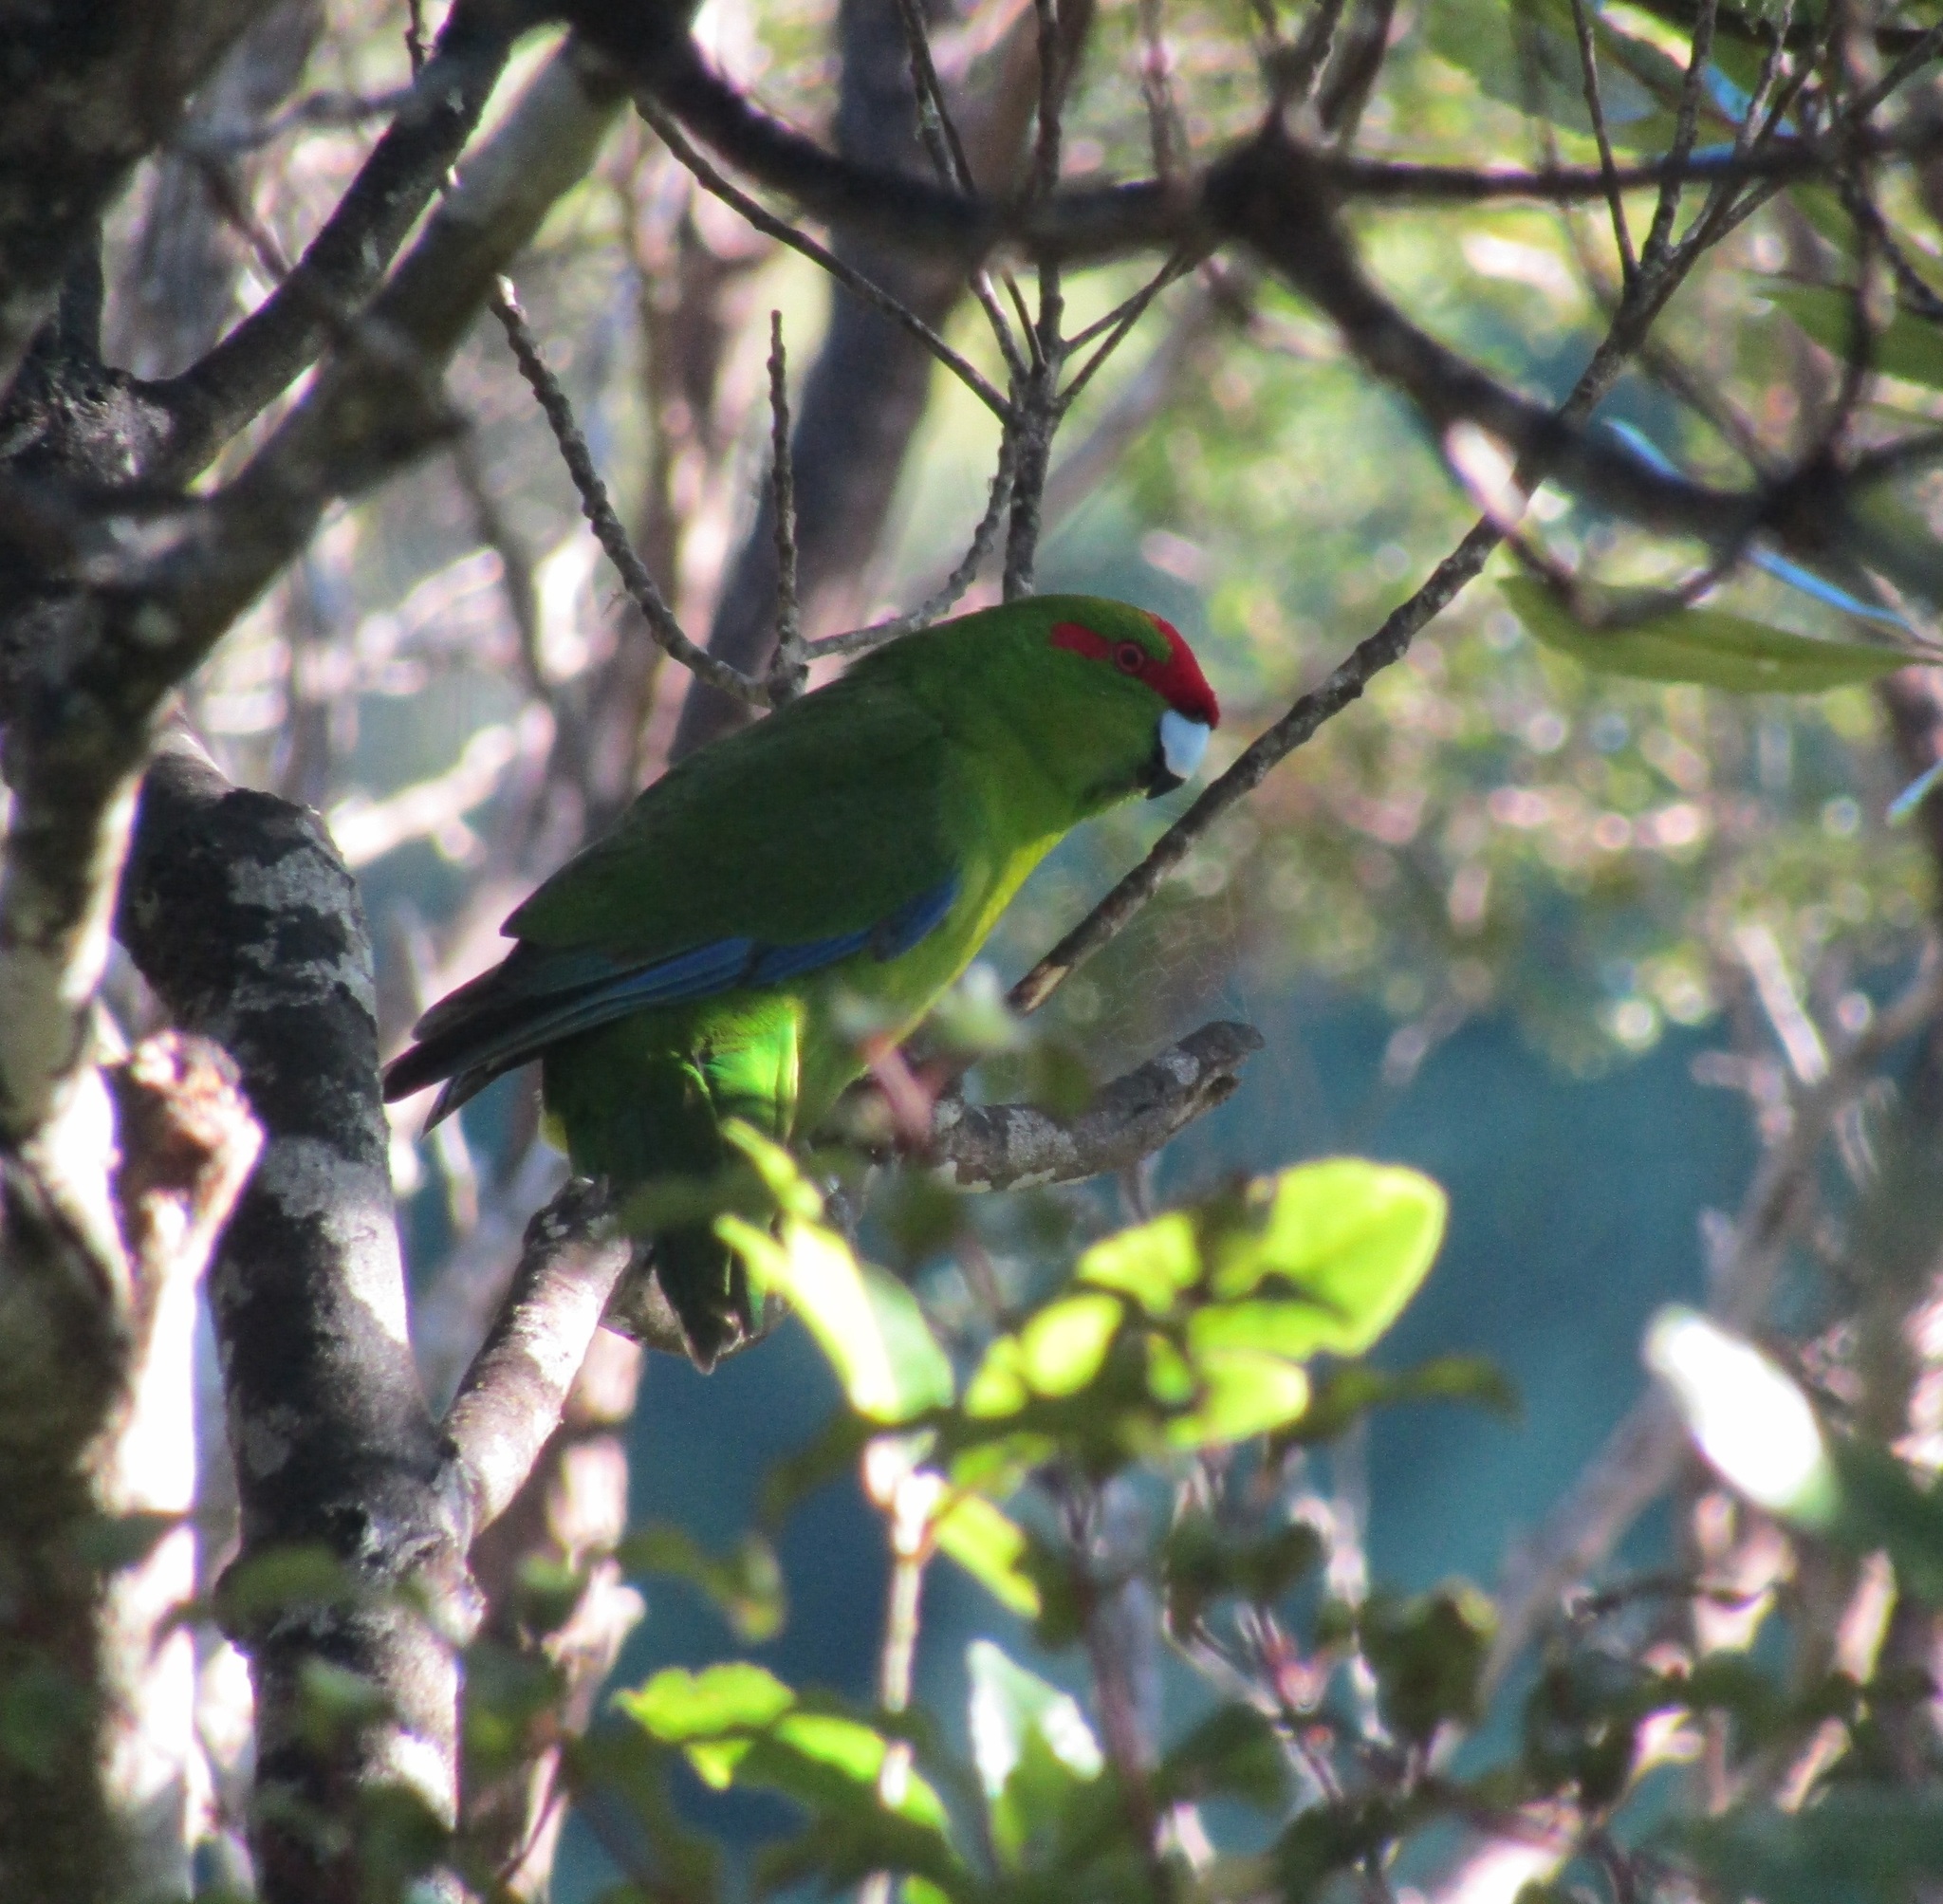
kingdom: Animalia
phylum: Chordata
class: Aves
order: Psittaciformes
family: Psittacidae
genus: Cyanoramphus
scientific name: Cyanoramphus novaezelandiae
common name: Red-fronted parakeet
